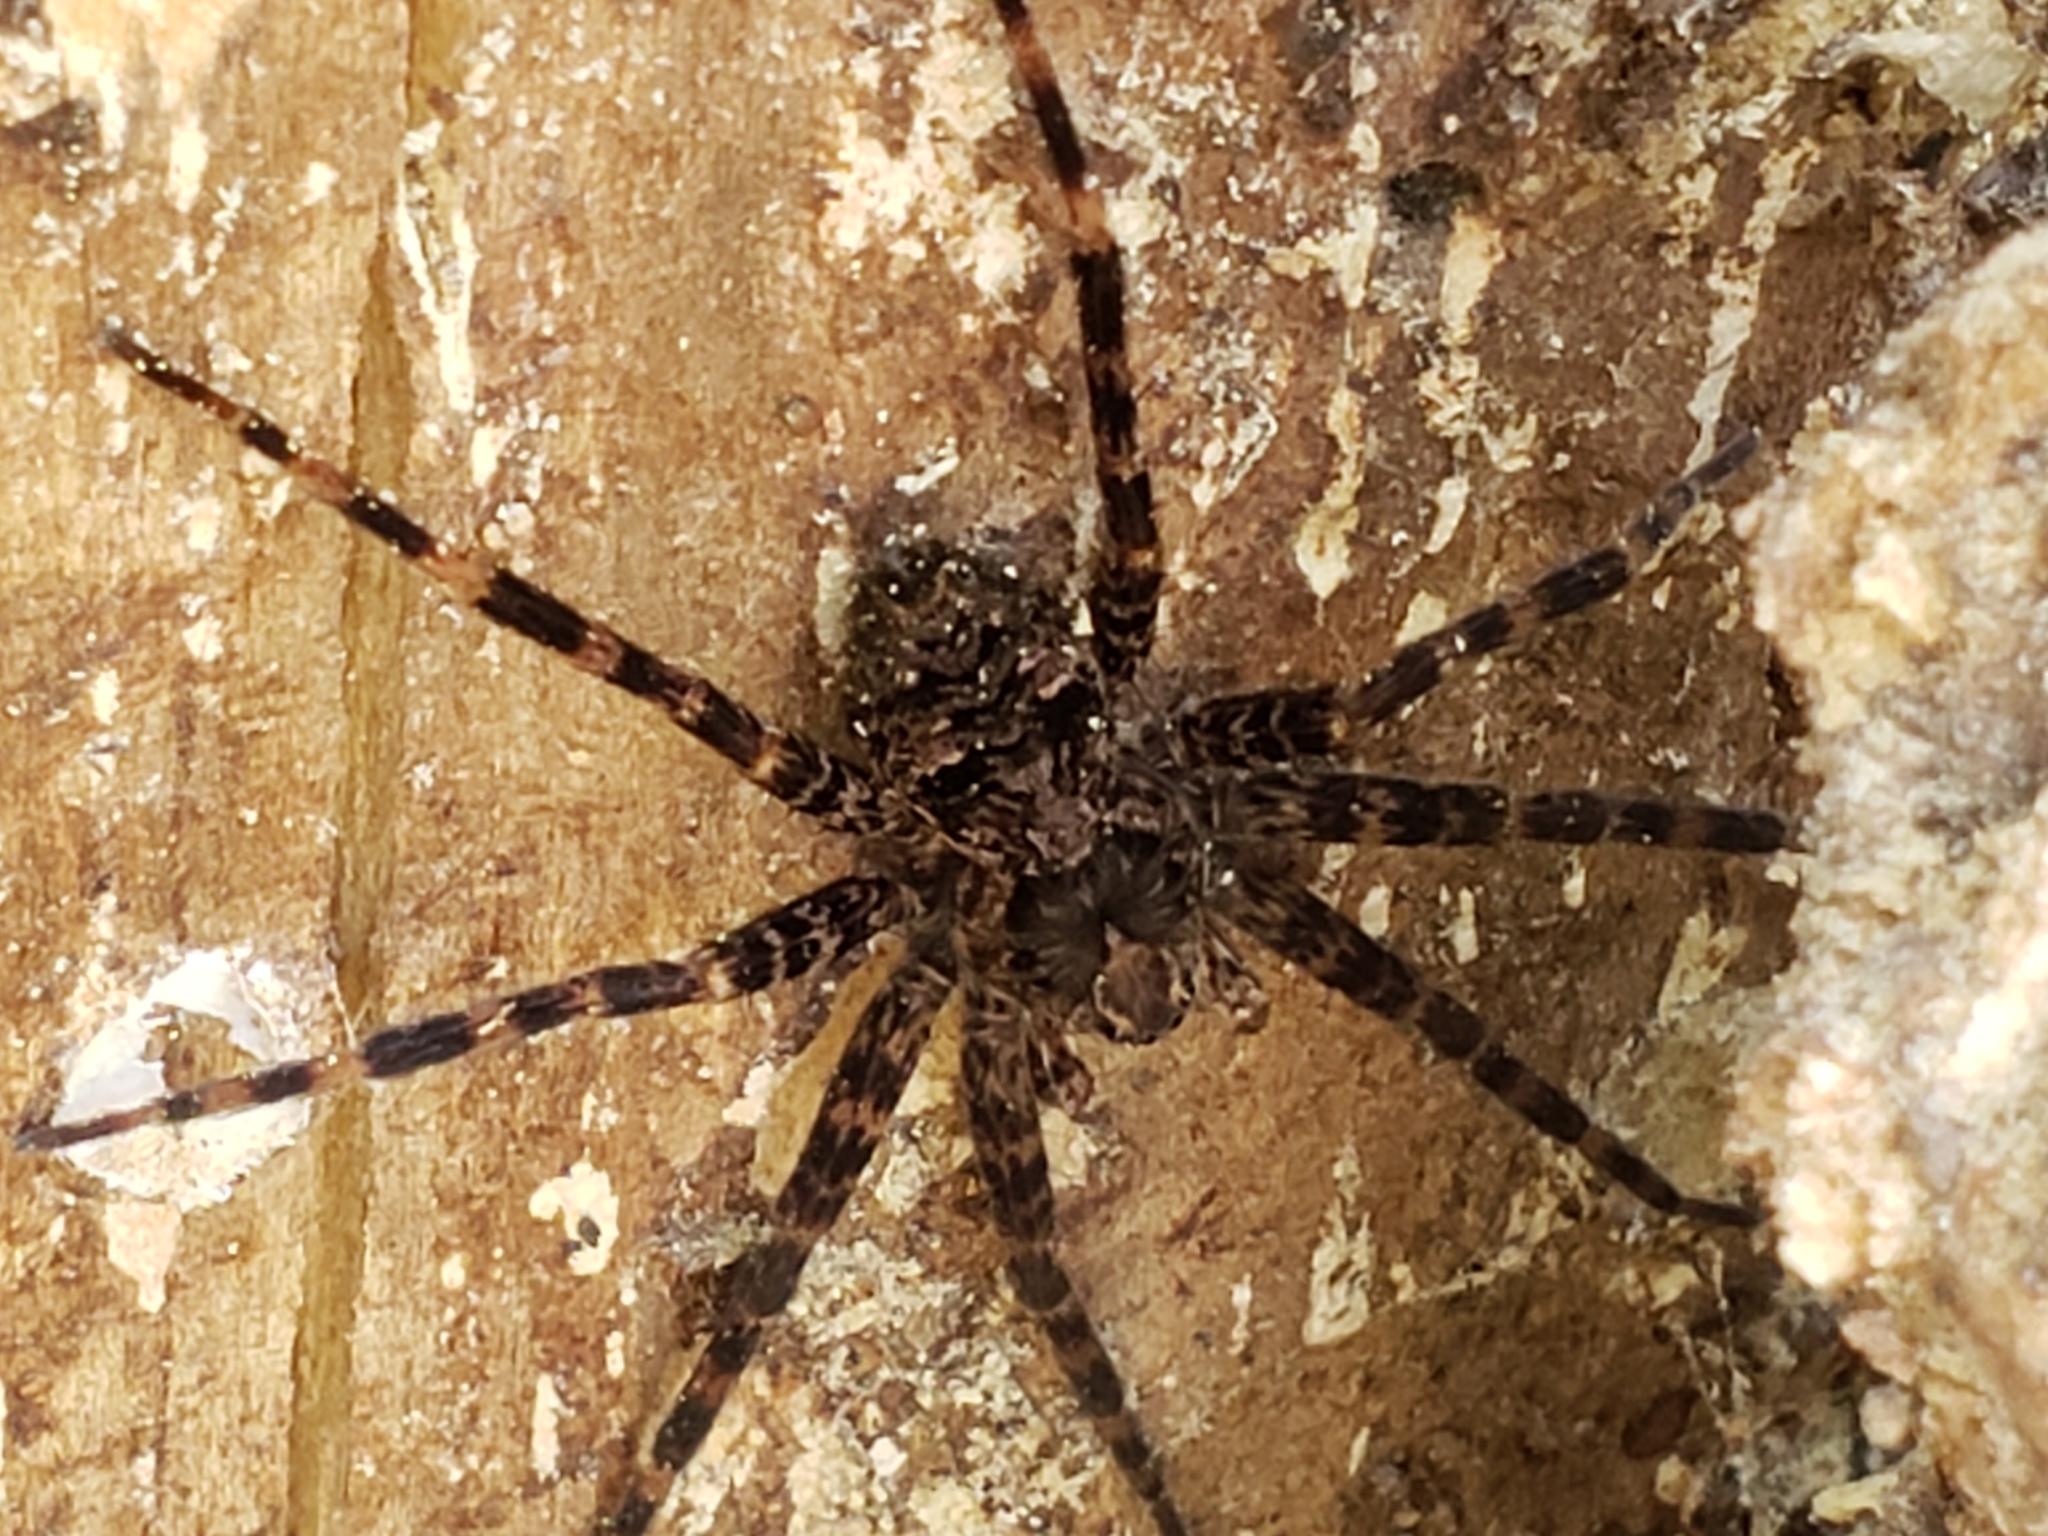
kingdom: Animalia
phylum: Arthropoda
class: Arachnida
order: Araneae
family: Pisauridae
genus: Dolomedes
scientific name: Dolomedes tenebrosus
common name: Dark fishing spider
